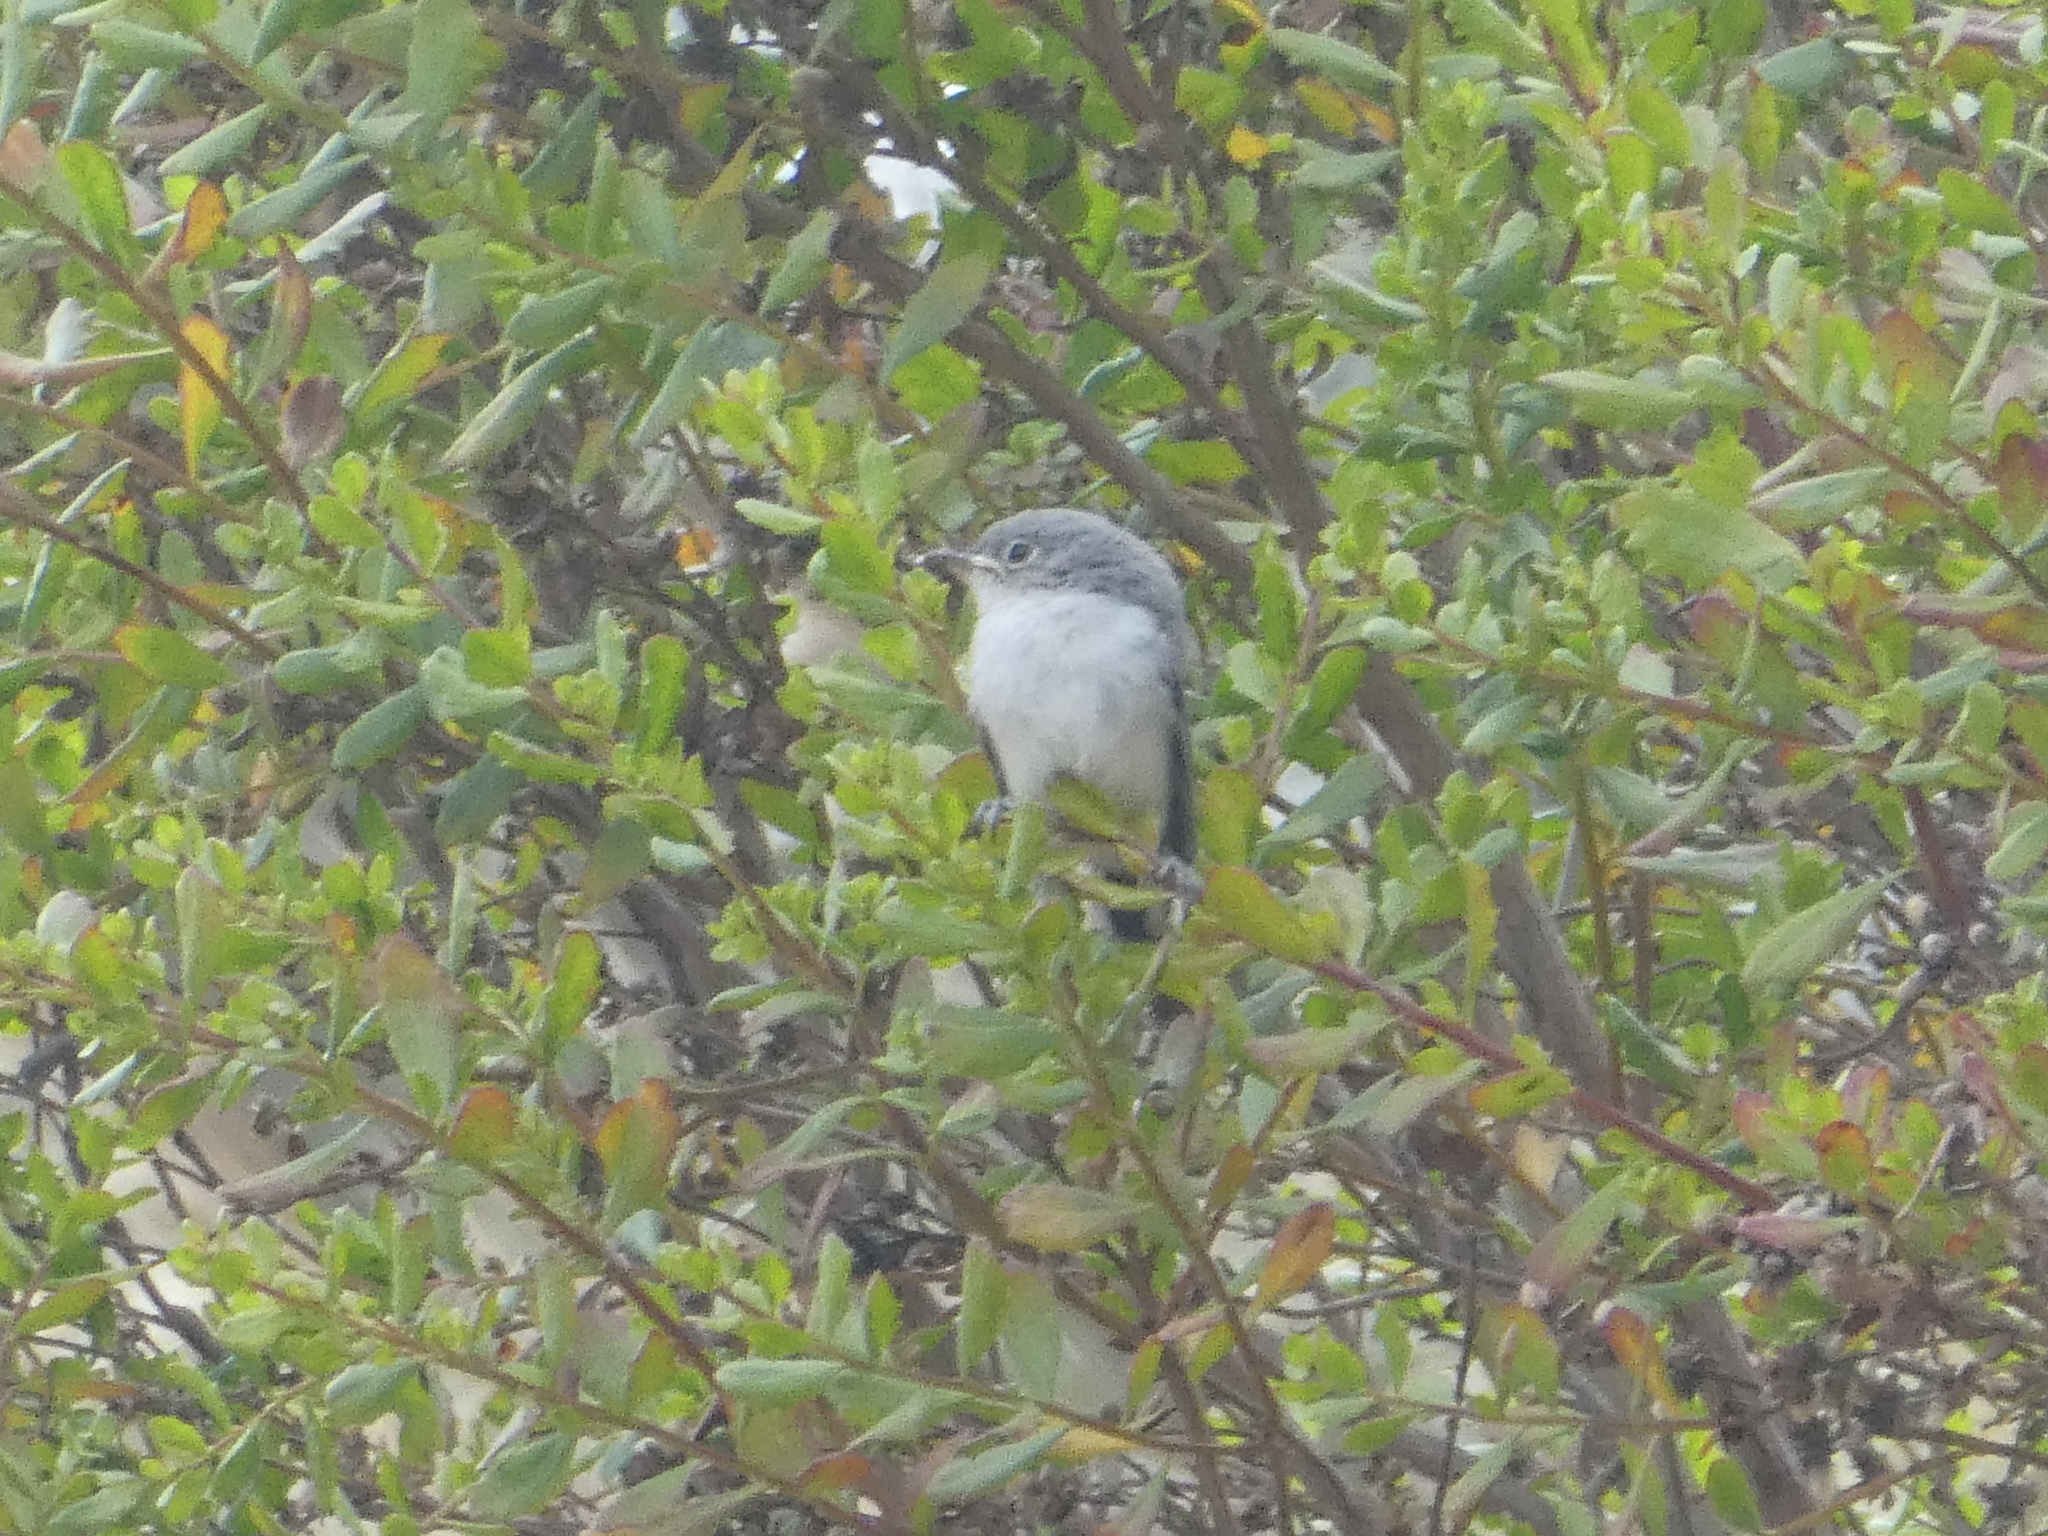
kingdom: Animalia
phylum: Chordata
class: Aves
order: Passeriformes
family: Polioptilidae
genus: Polioptila
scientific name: Polioptila caerulea
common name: Blue-gray gnatcatcher
